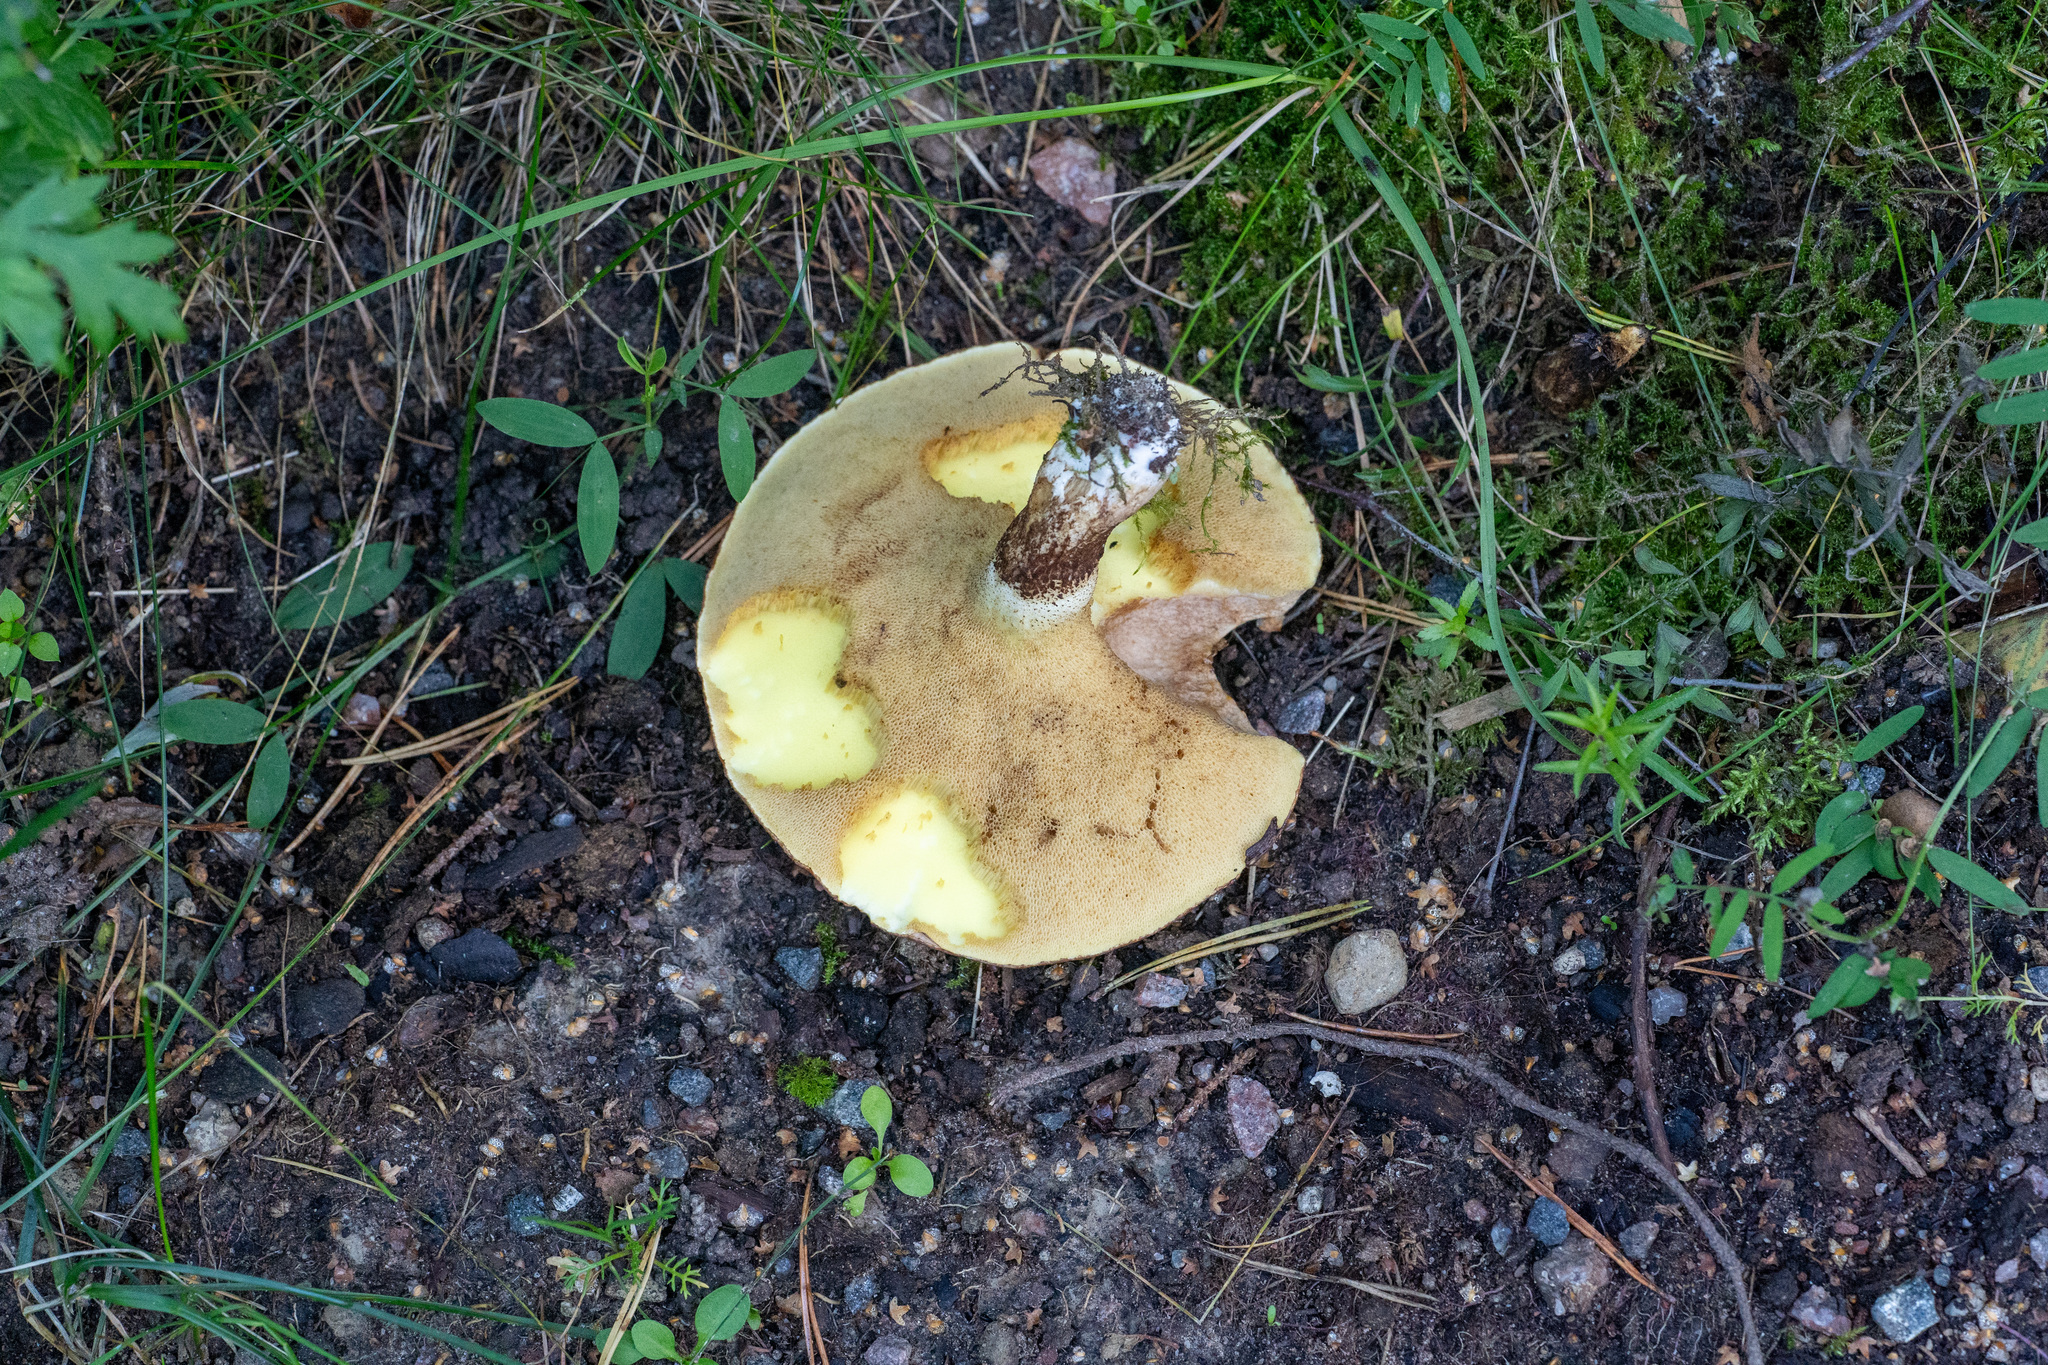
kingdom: Fungi
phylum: Basidiomycota
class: Agaricomycetes
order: Boletales
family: Suillaceae
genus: Suillus
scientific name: Suillus luteus
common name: Slippery jack
